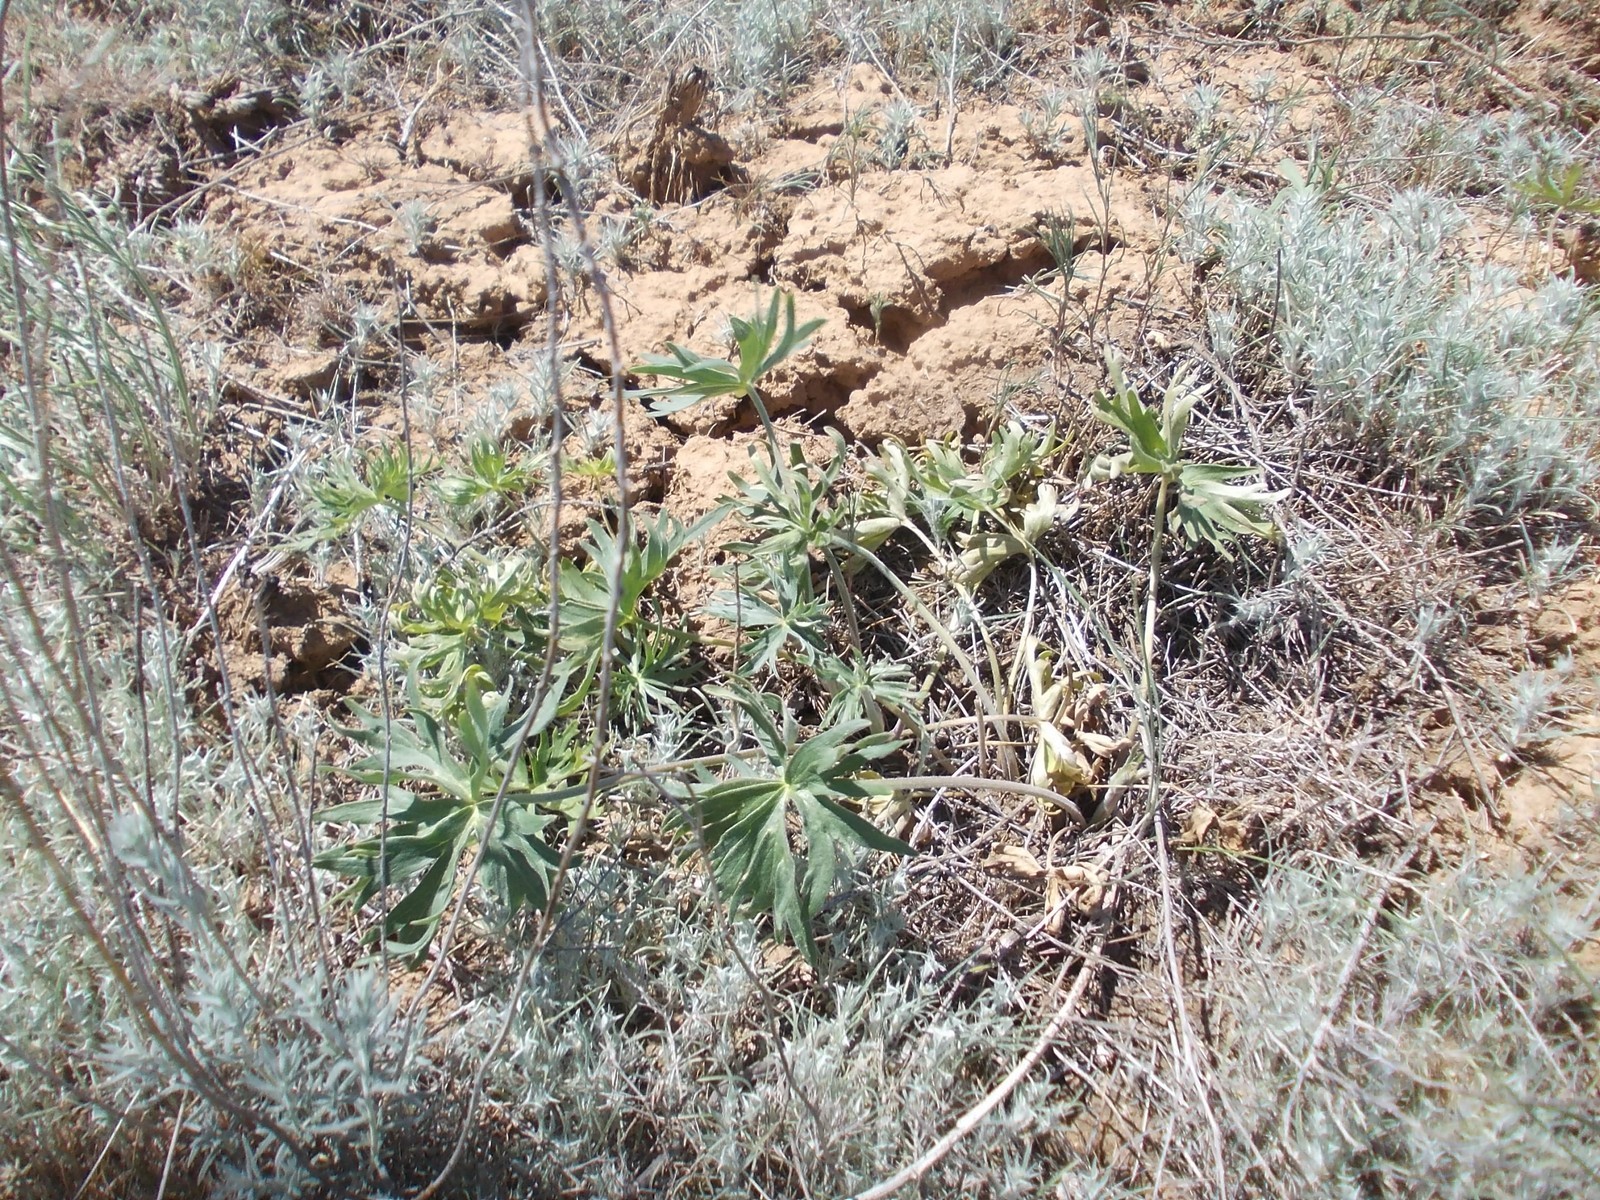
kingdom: Plantae
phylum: Tracheophyta
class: Magnoliopsida
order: Ranunculales
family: Ranunculaceae
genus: Delphinium
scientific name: Delphinium puniceum
